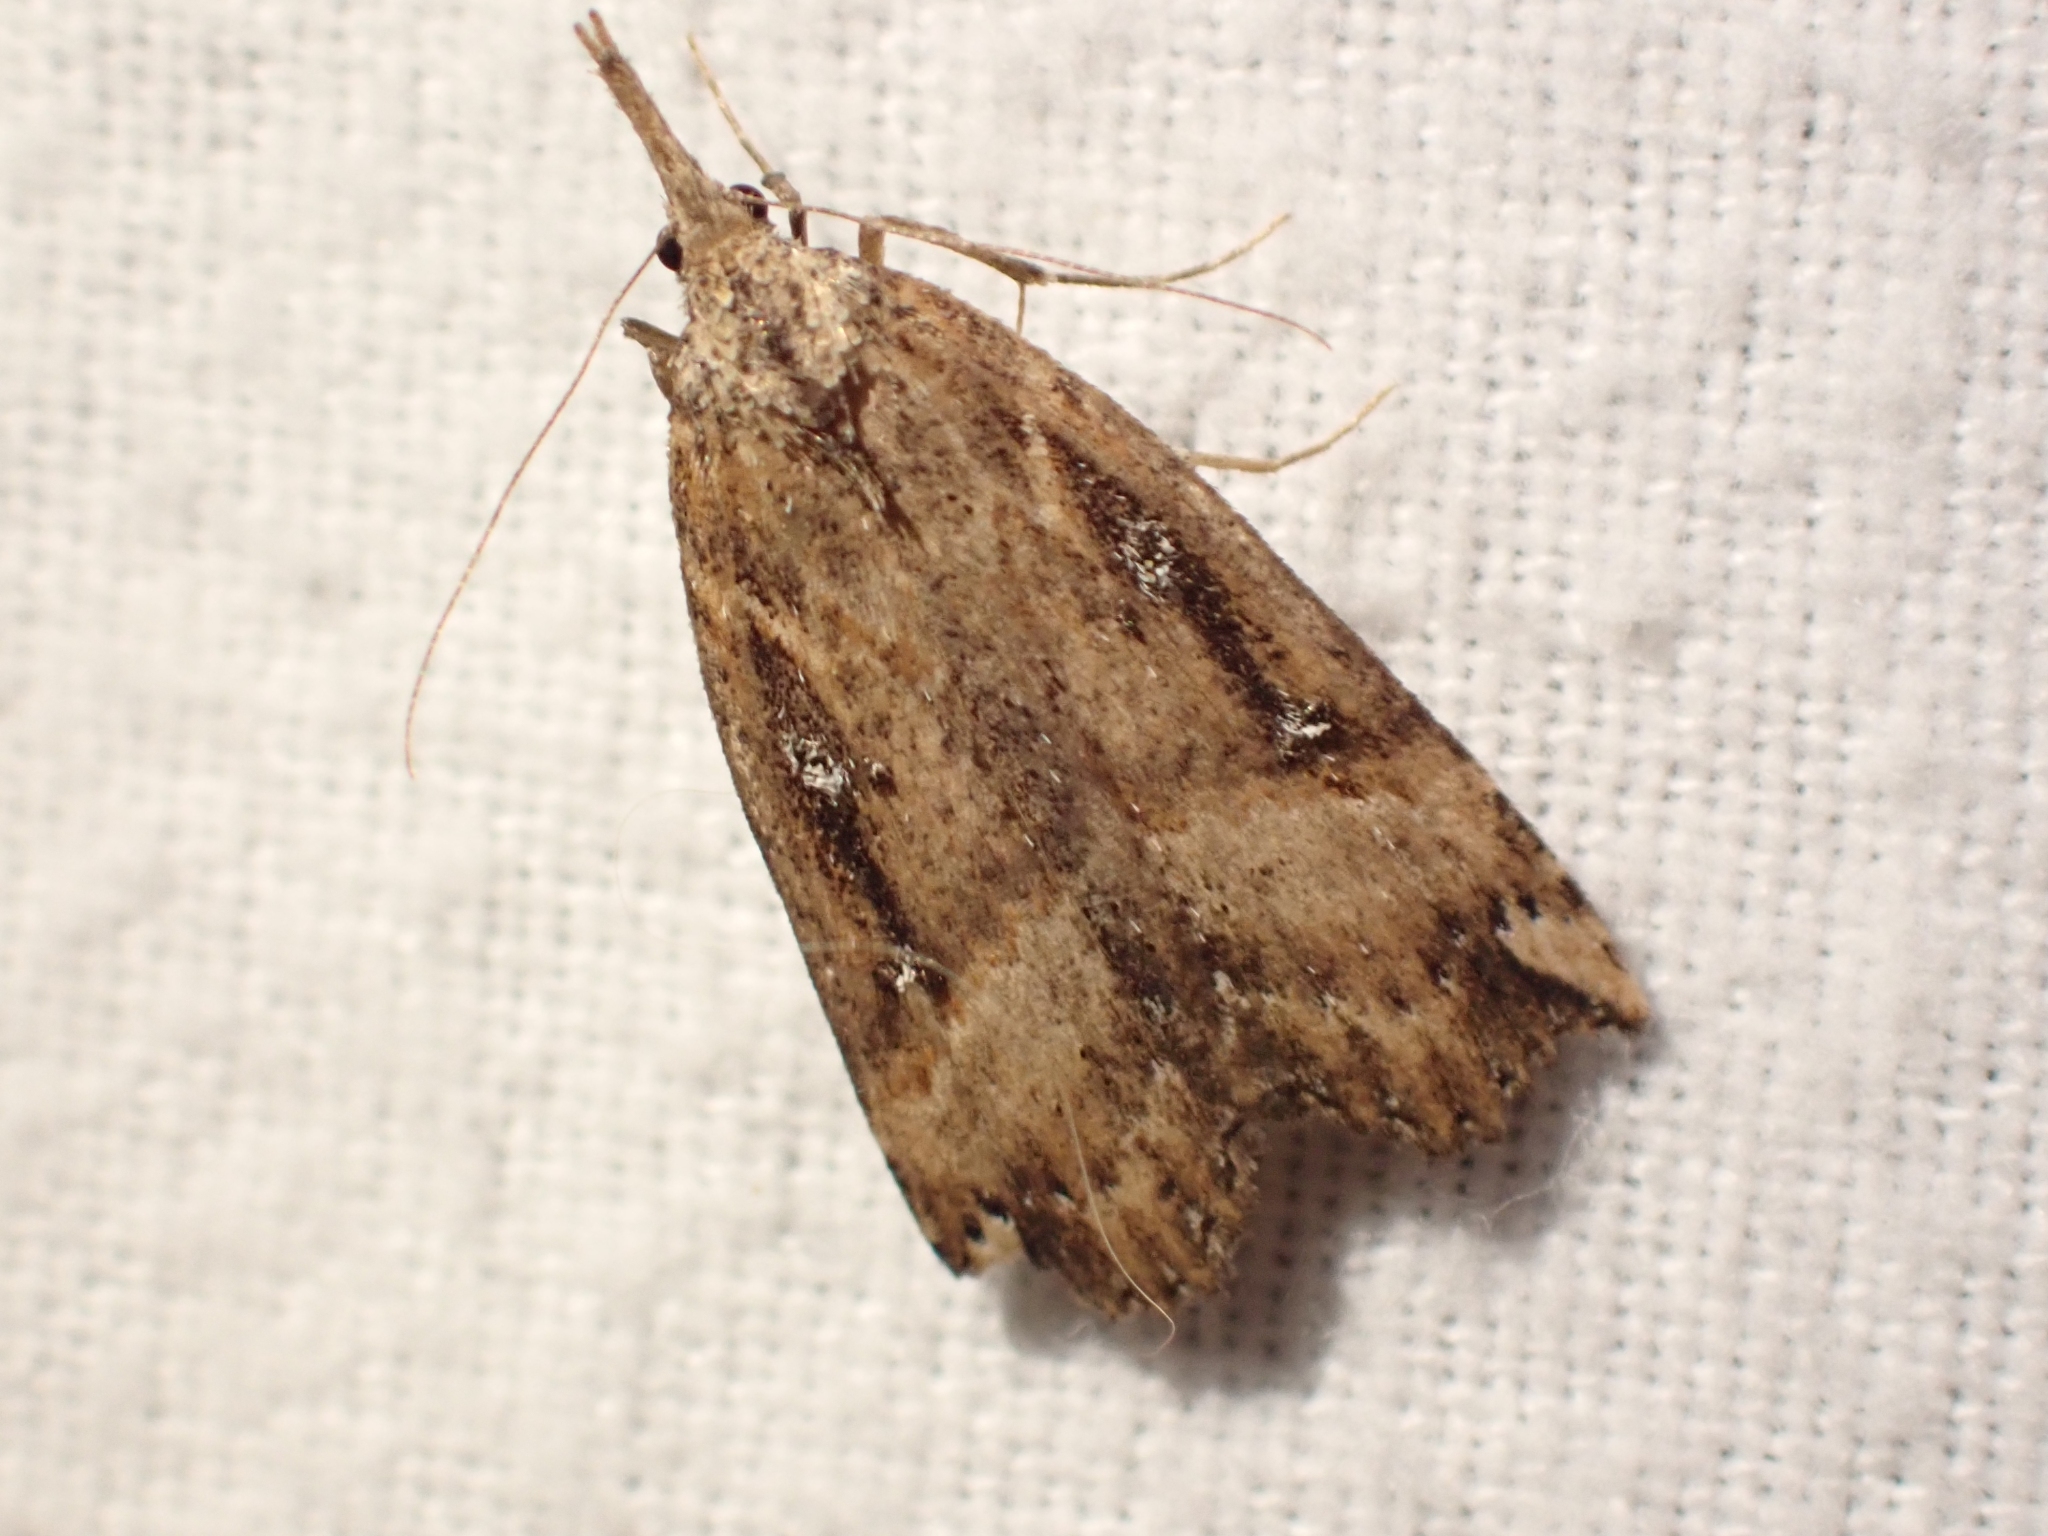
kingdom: Animalia
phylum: Arthropoda
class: Insecta
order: Lepidoptera
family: Erebidae
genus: Hypena
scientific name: Hypena californica
